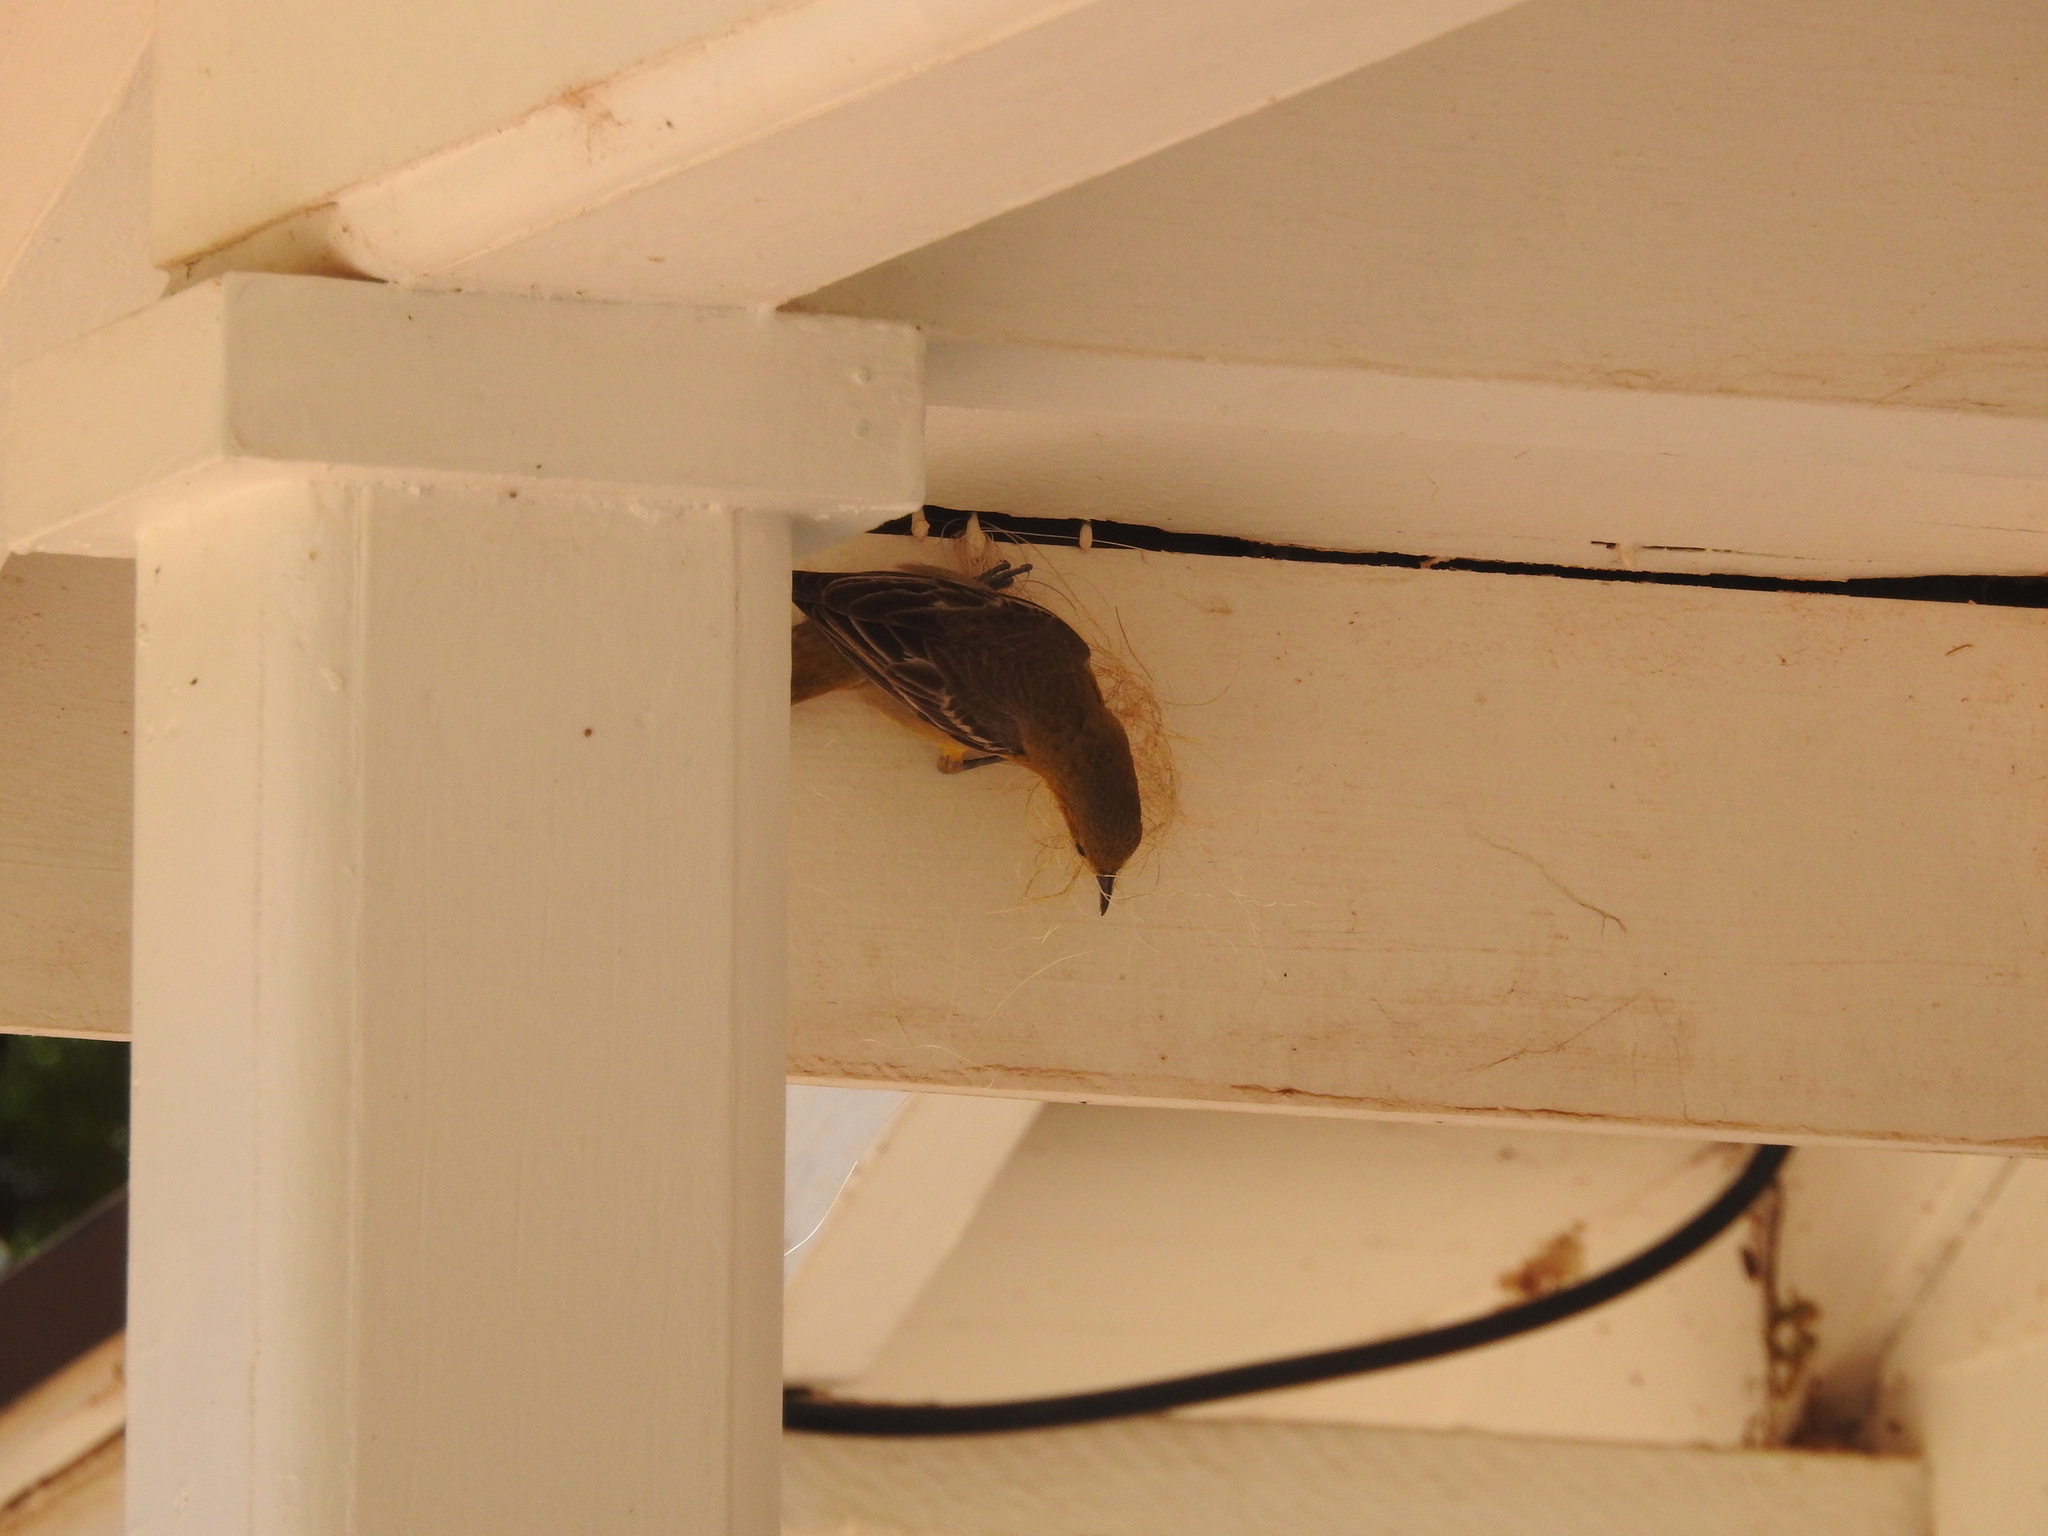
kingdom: Animalia
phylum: Chordata
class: Aves
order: Passeriformes
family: Icteridae
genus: Icterus
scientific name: Icterus cucullatus
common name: Hooded oriole
